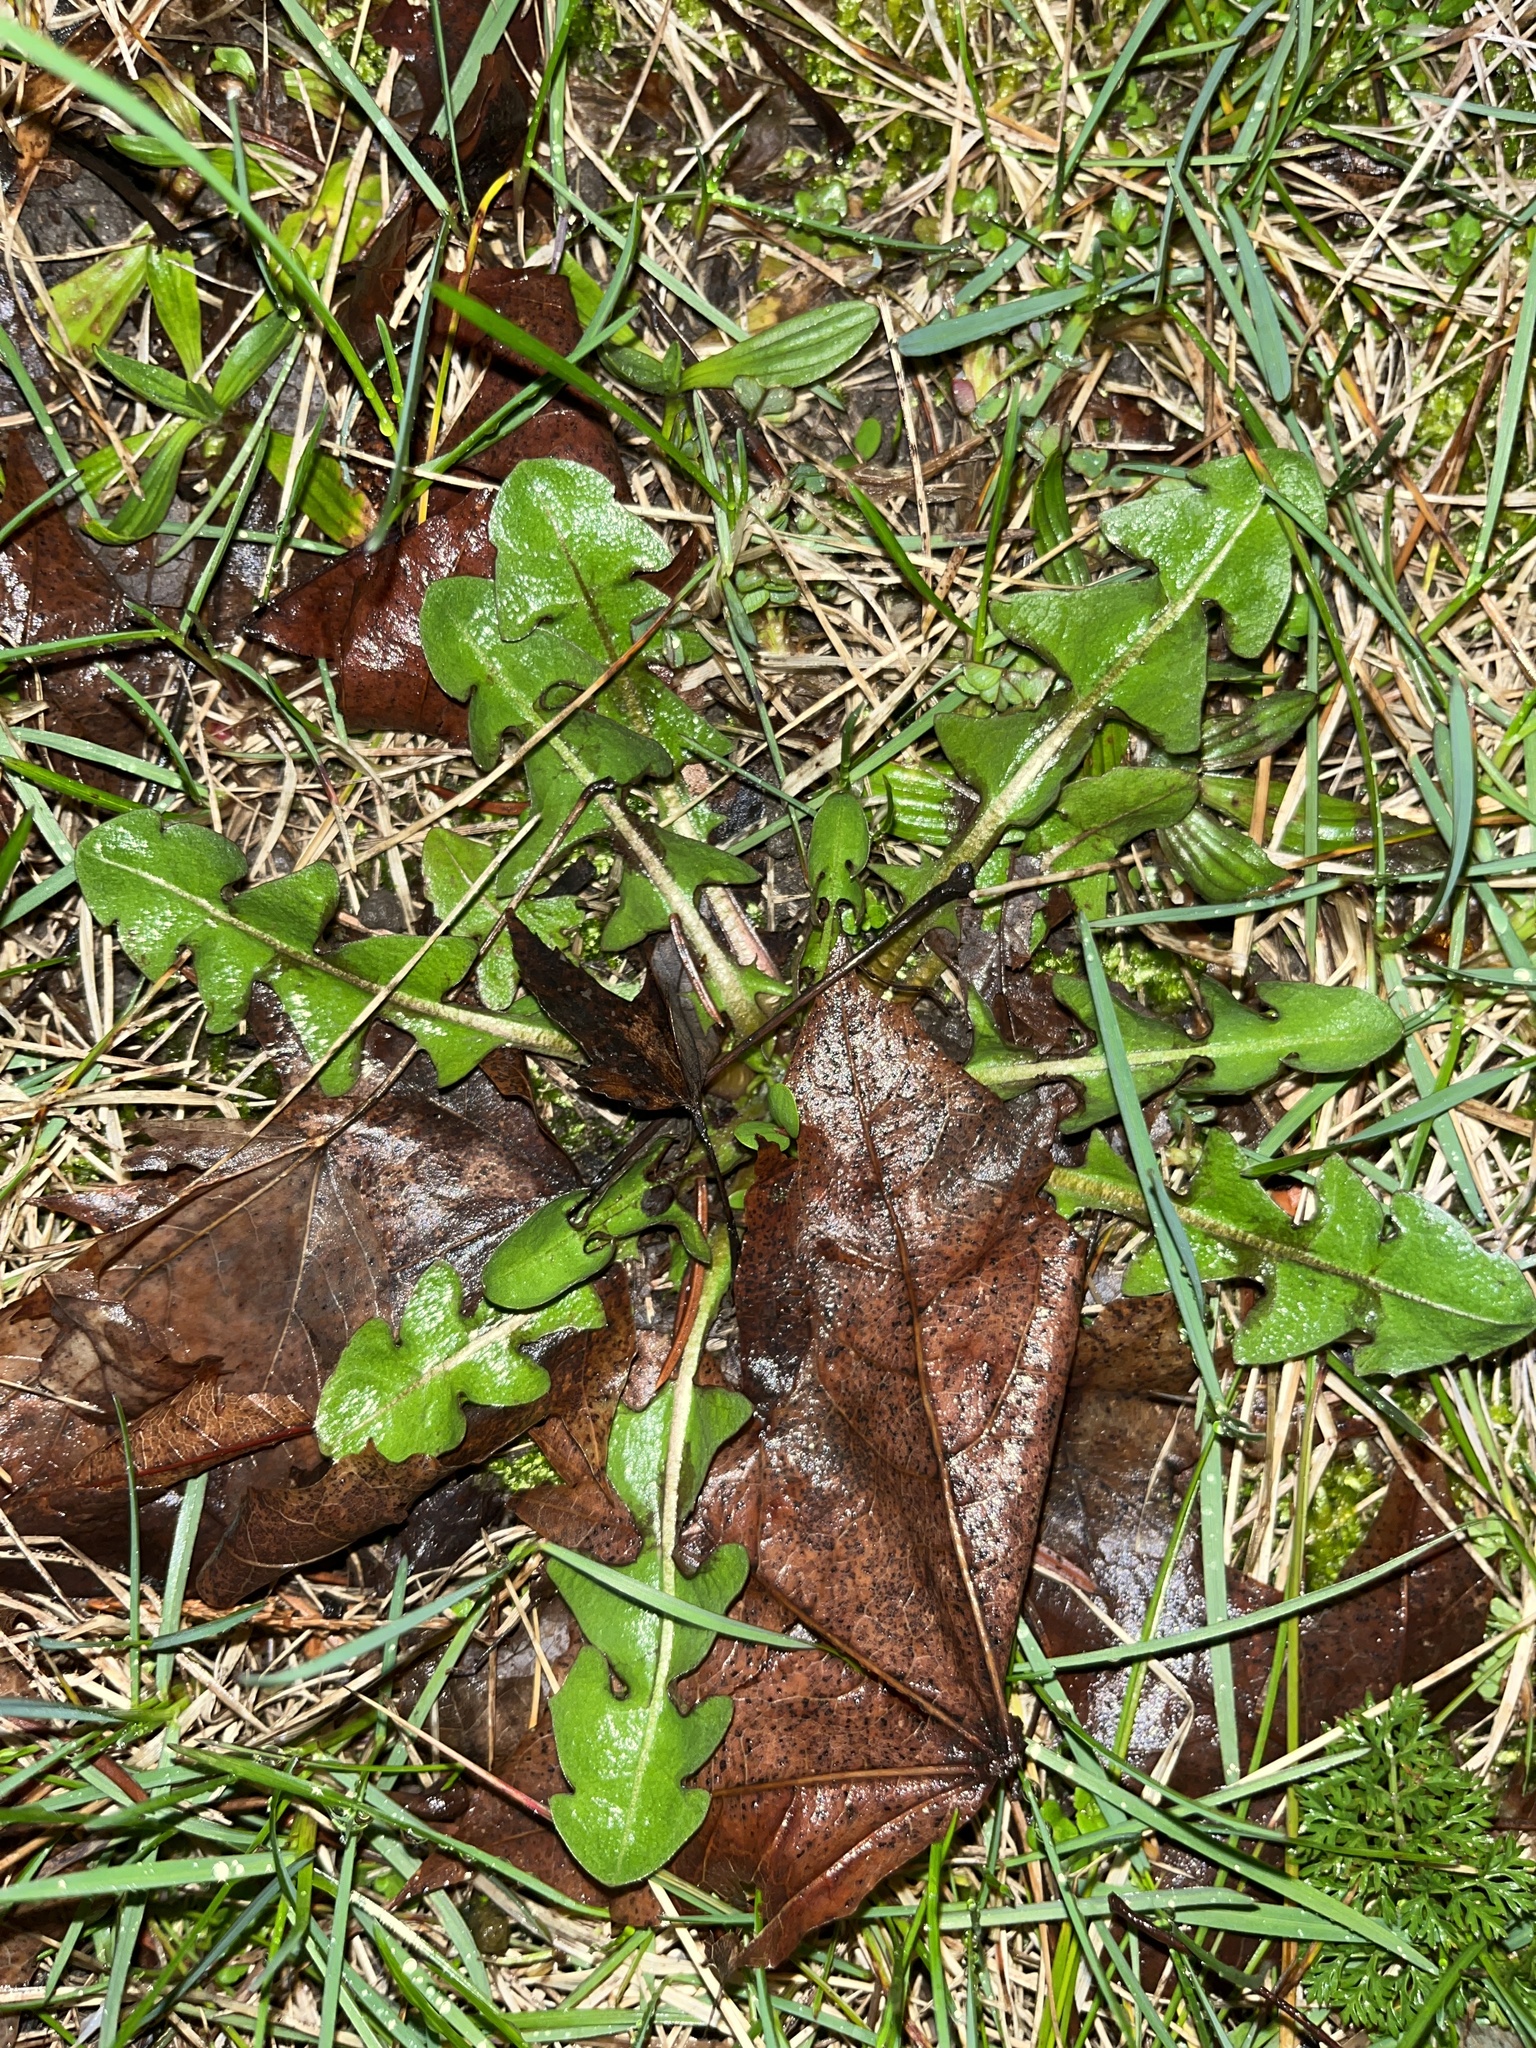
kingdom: Plantae
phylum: Tracheophyta
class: Magnoliopsida
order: Asterales
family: Asteraceae
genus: Taraxacum
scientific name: Taraxacum officinale
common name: Common dandelion
